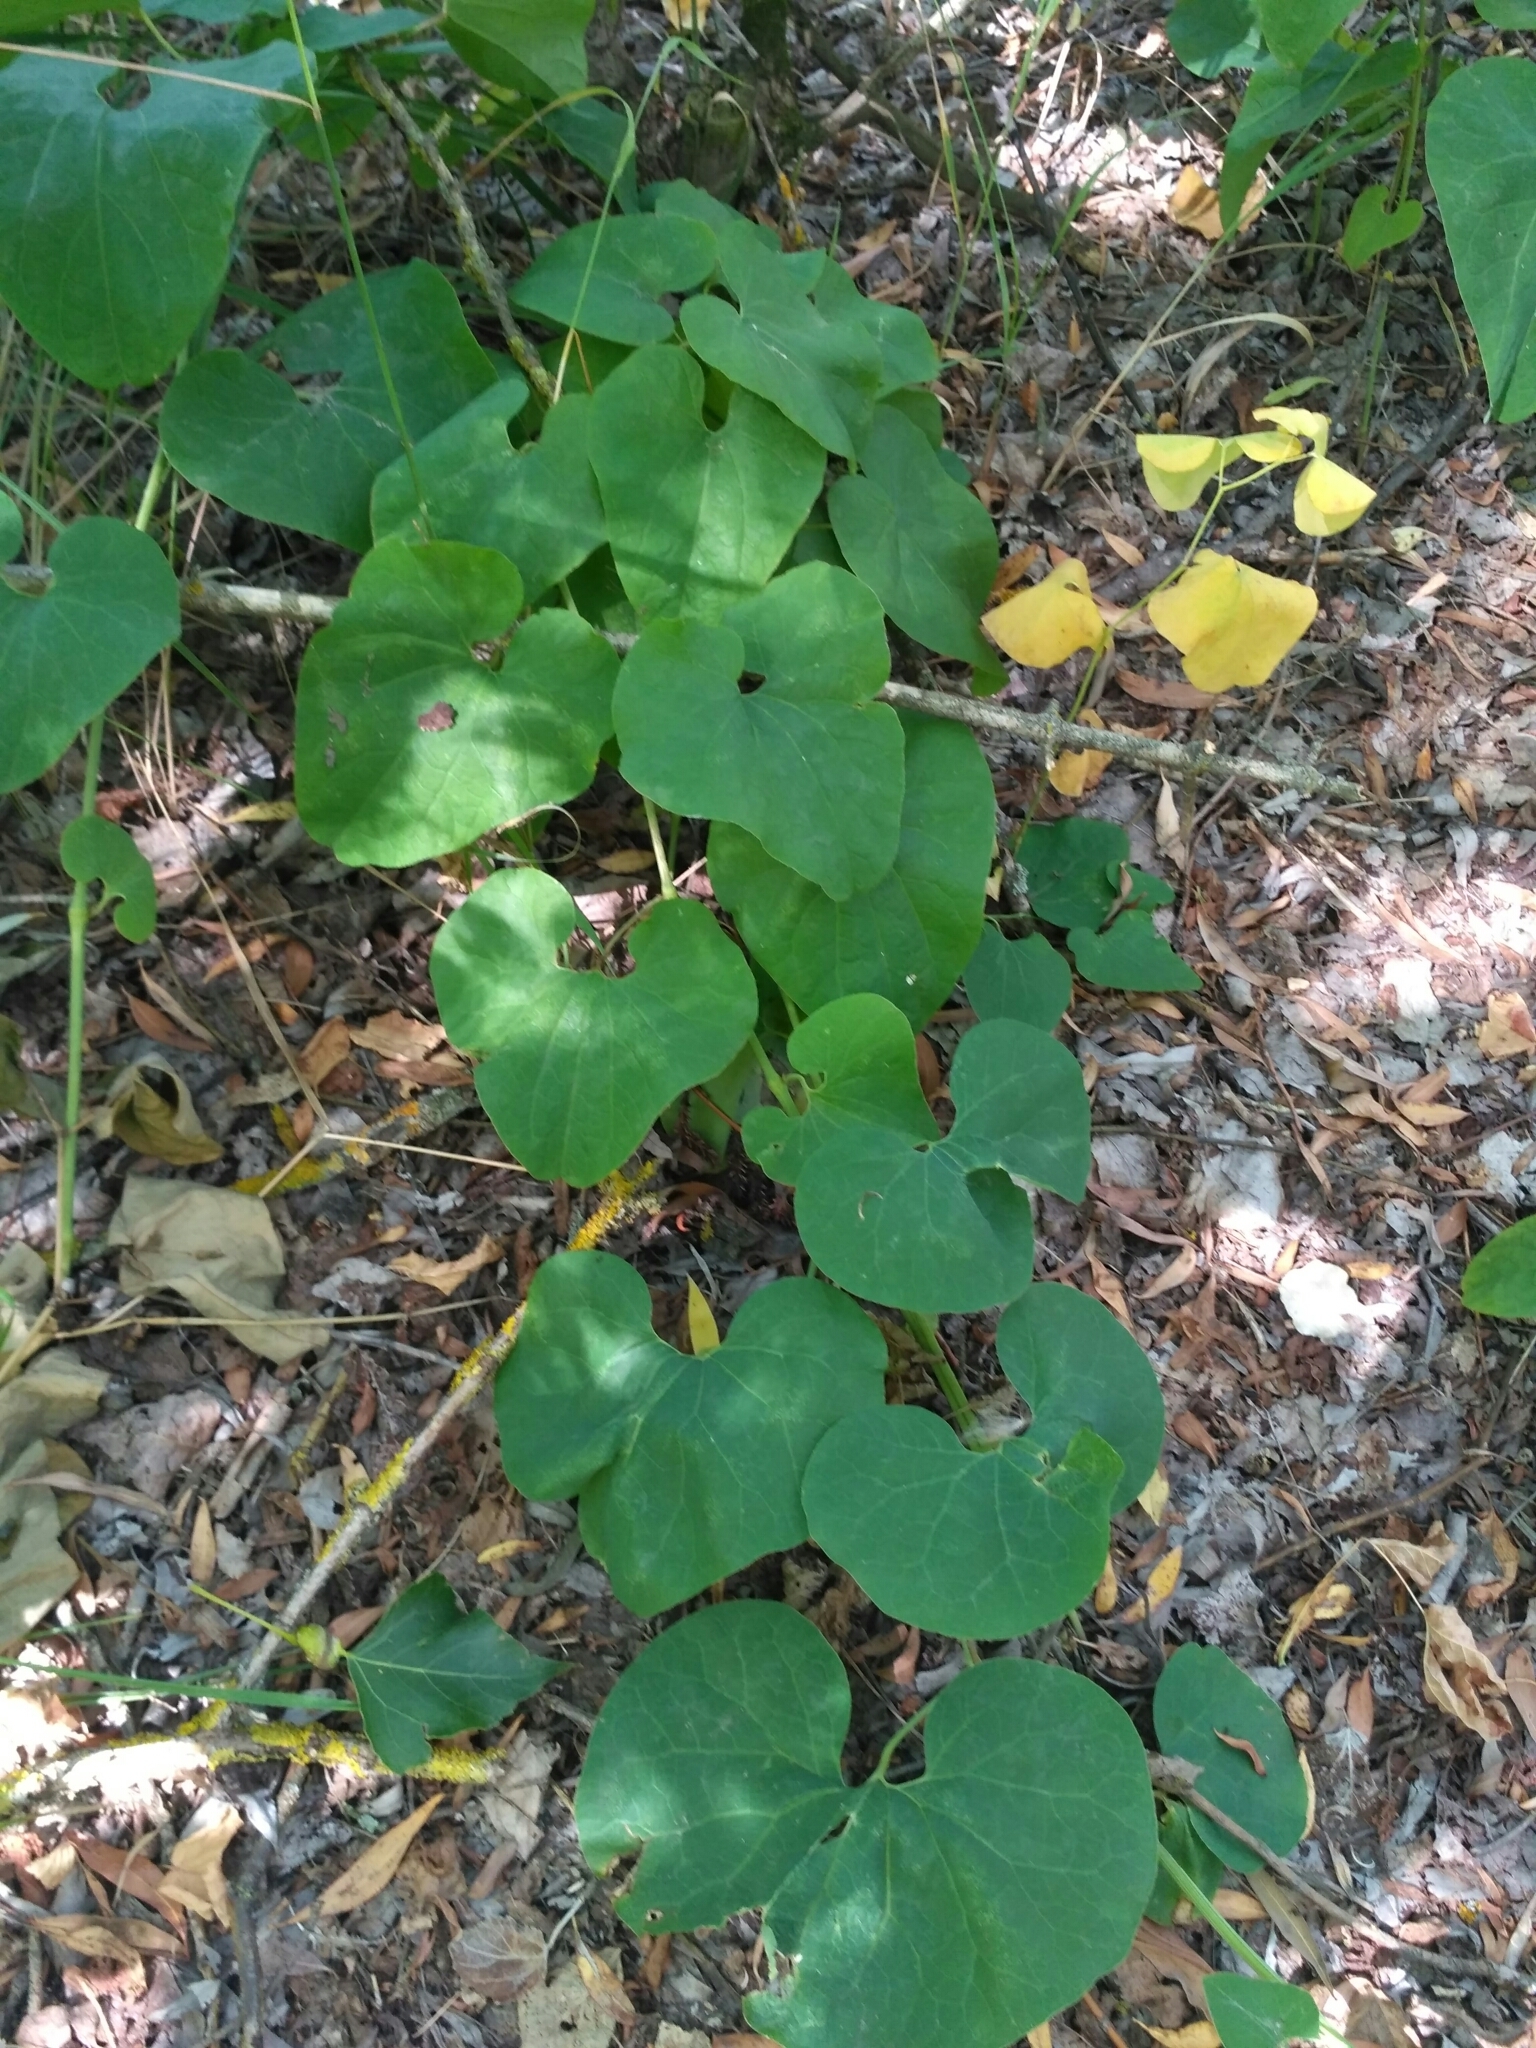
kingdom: Plantae
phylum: Tracheophyta
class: Magnoliopsida
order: Piperales
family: Aristolochiaceae
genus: Aristolochia
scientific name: Aristolochia clematitis
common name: Birthwort
